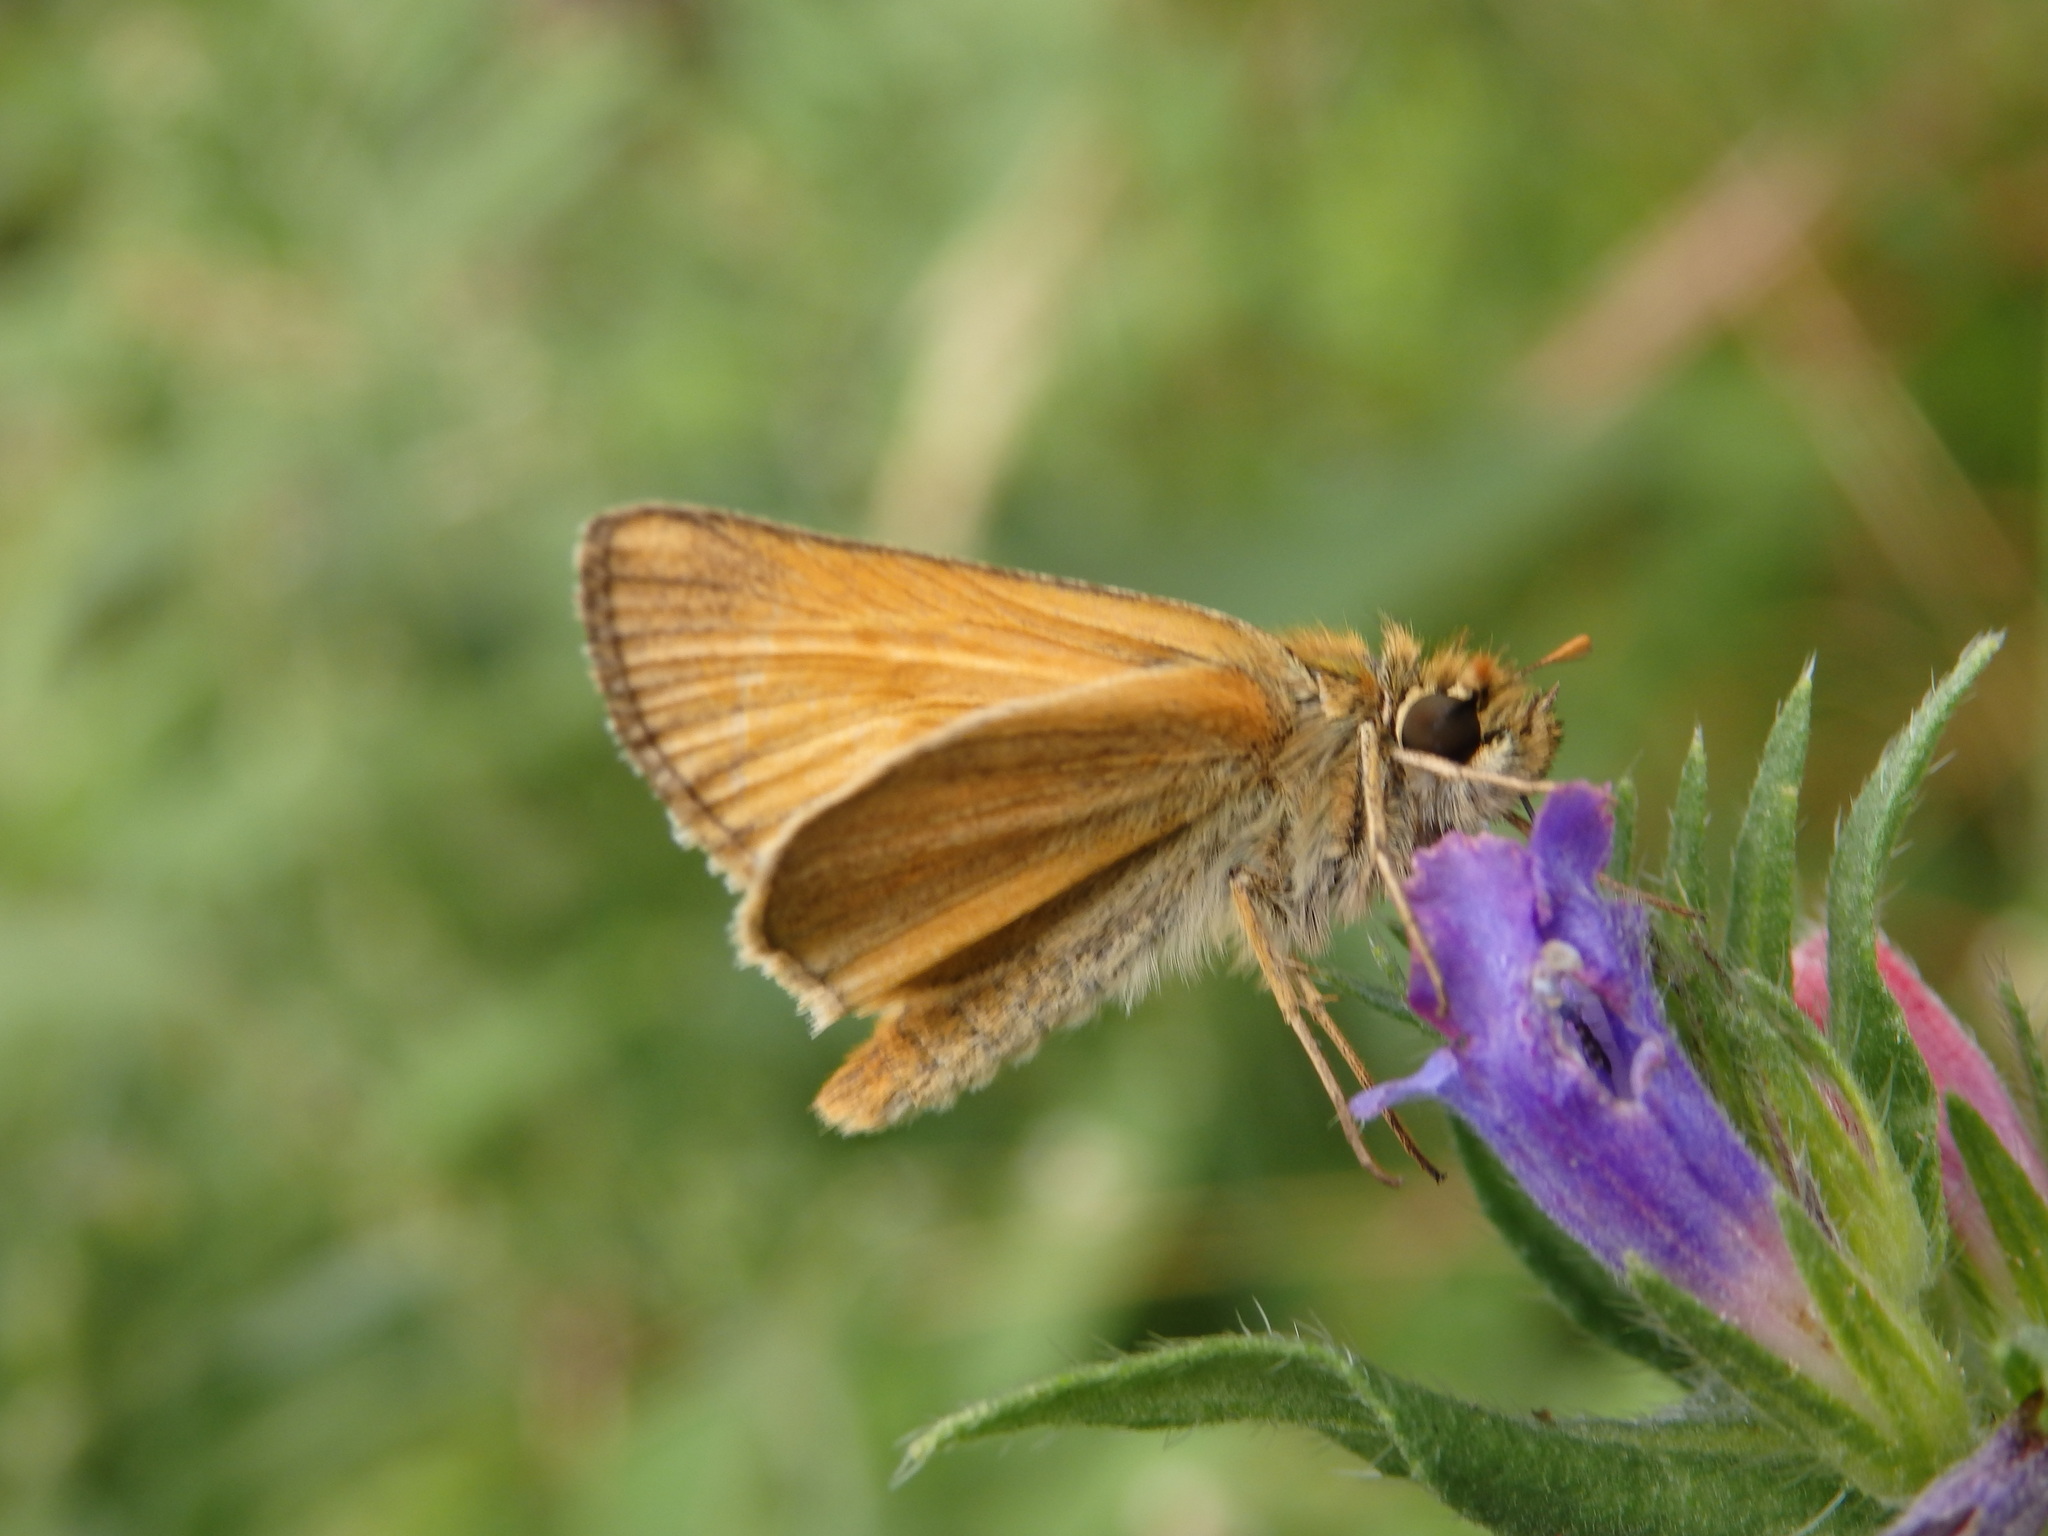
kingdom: Animalia
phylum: Arthropoda
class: Insecta
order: Lepidoptera
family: Hesperiidae
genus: Ochlodes
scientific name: Ochlodes venata
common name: Large skipper
